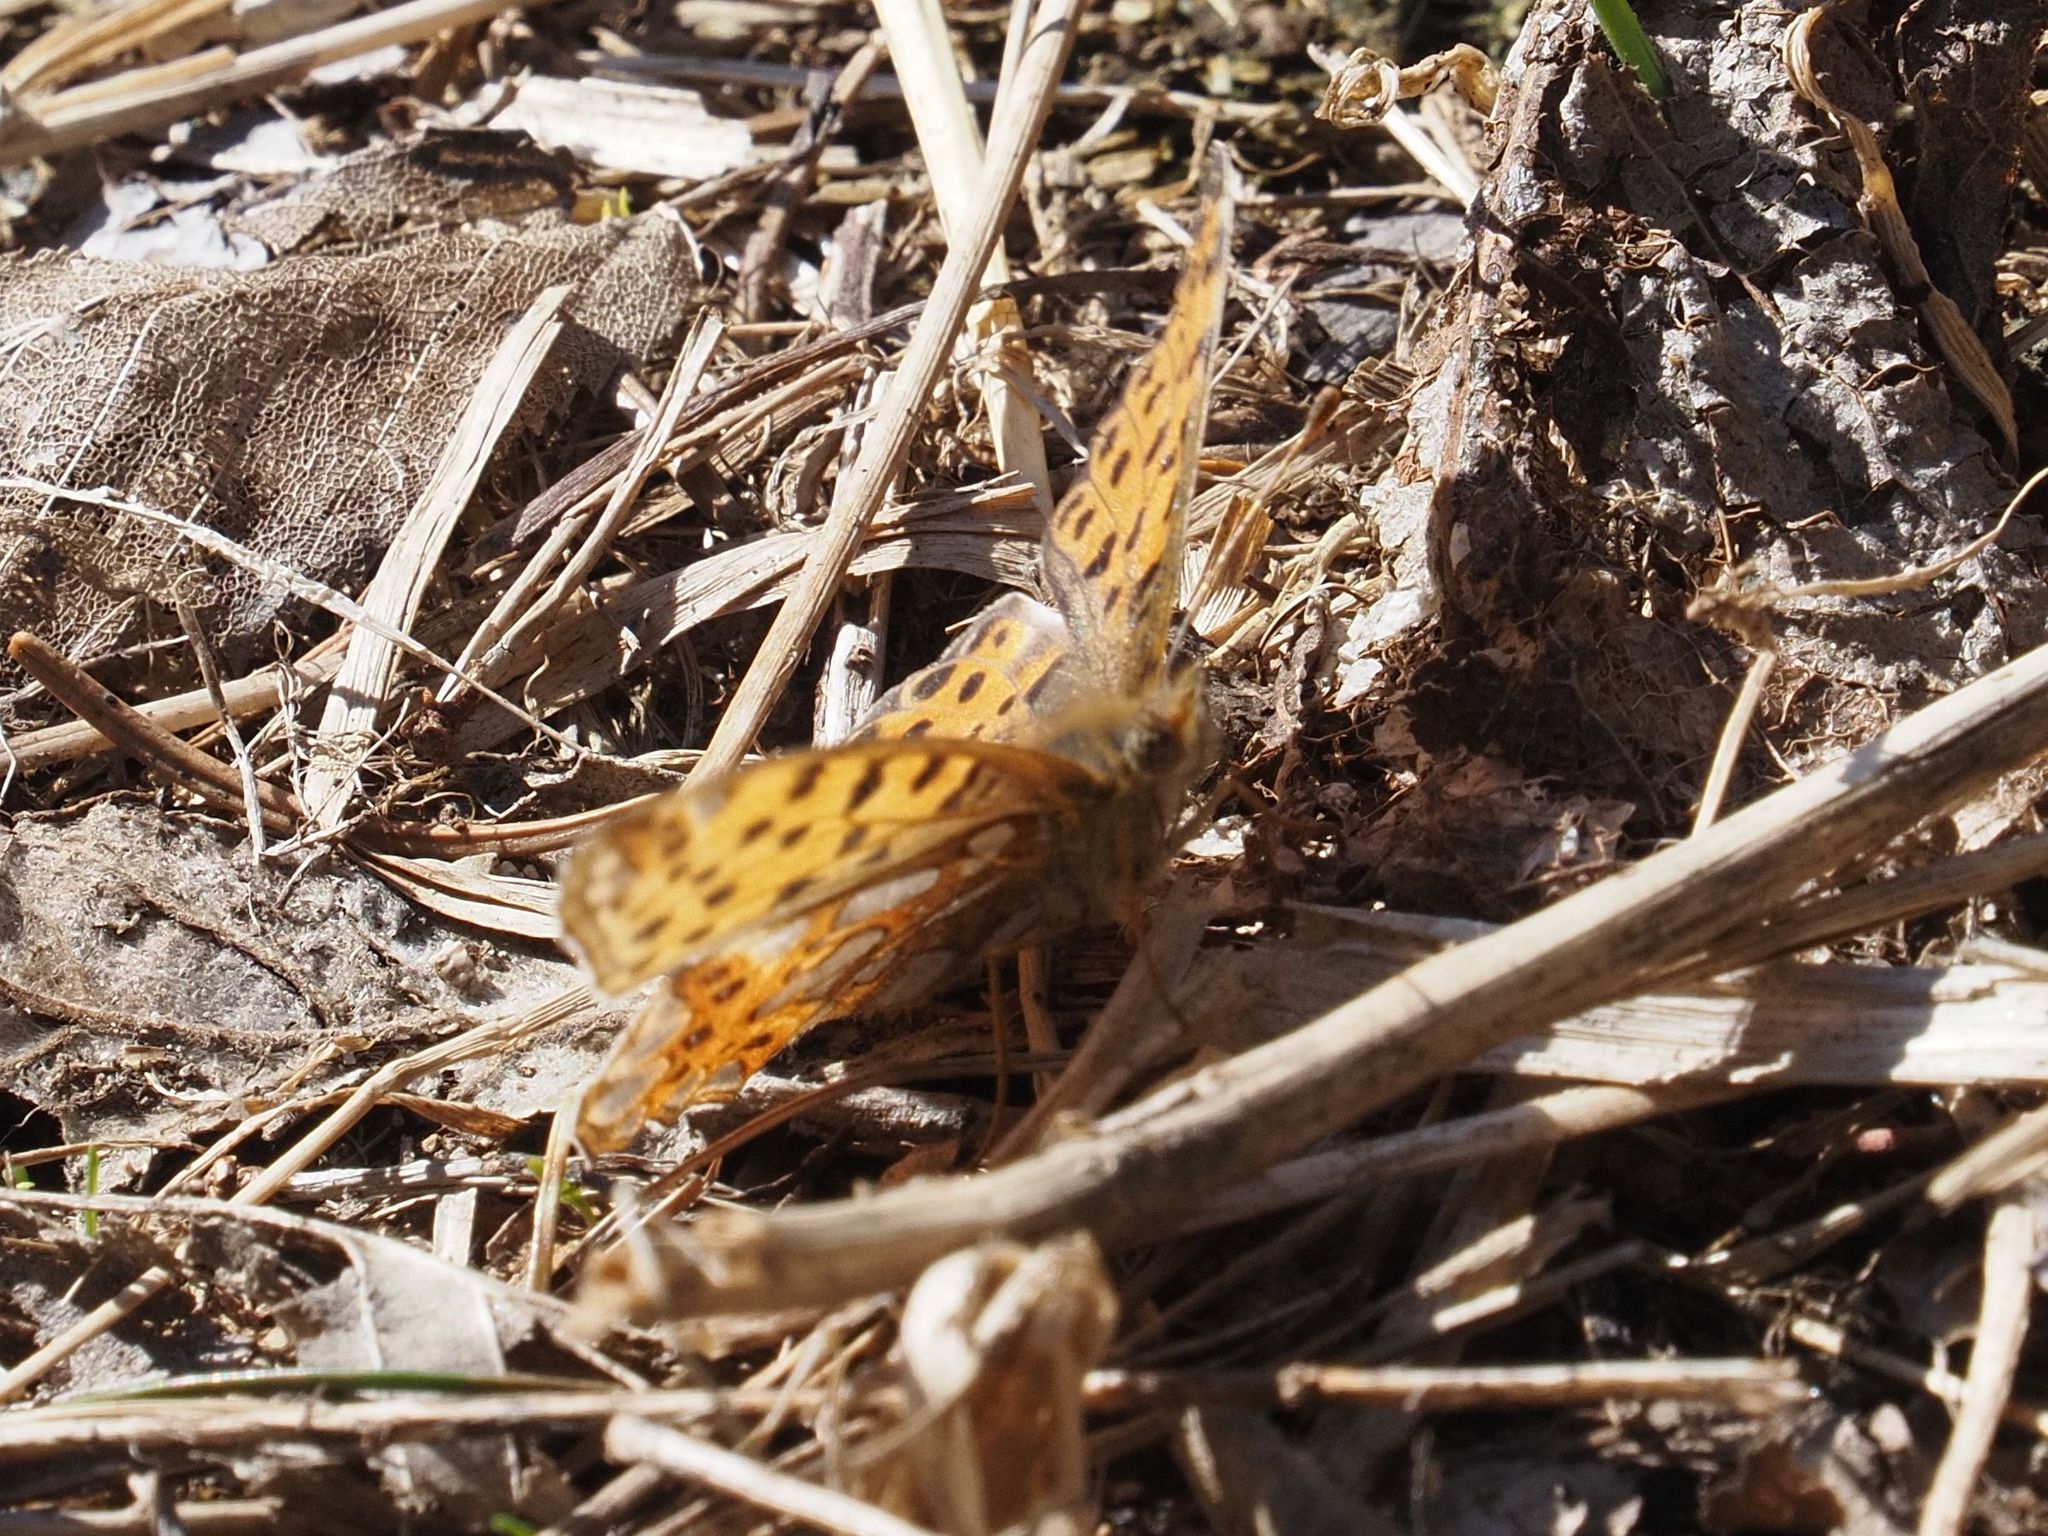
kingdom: Animalia
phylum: Arthropoda
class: Insecta
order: Lepidoptera
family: Nymphalidae
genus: Issoria
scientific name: Issoria lathonia
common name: Queen of spain fritillary
